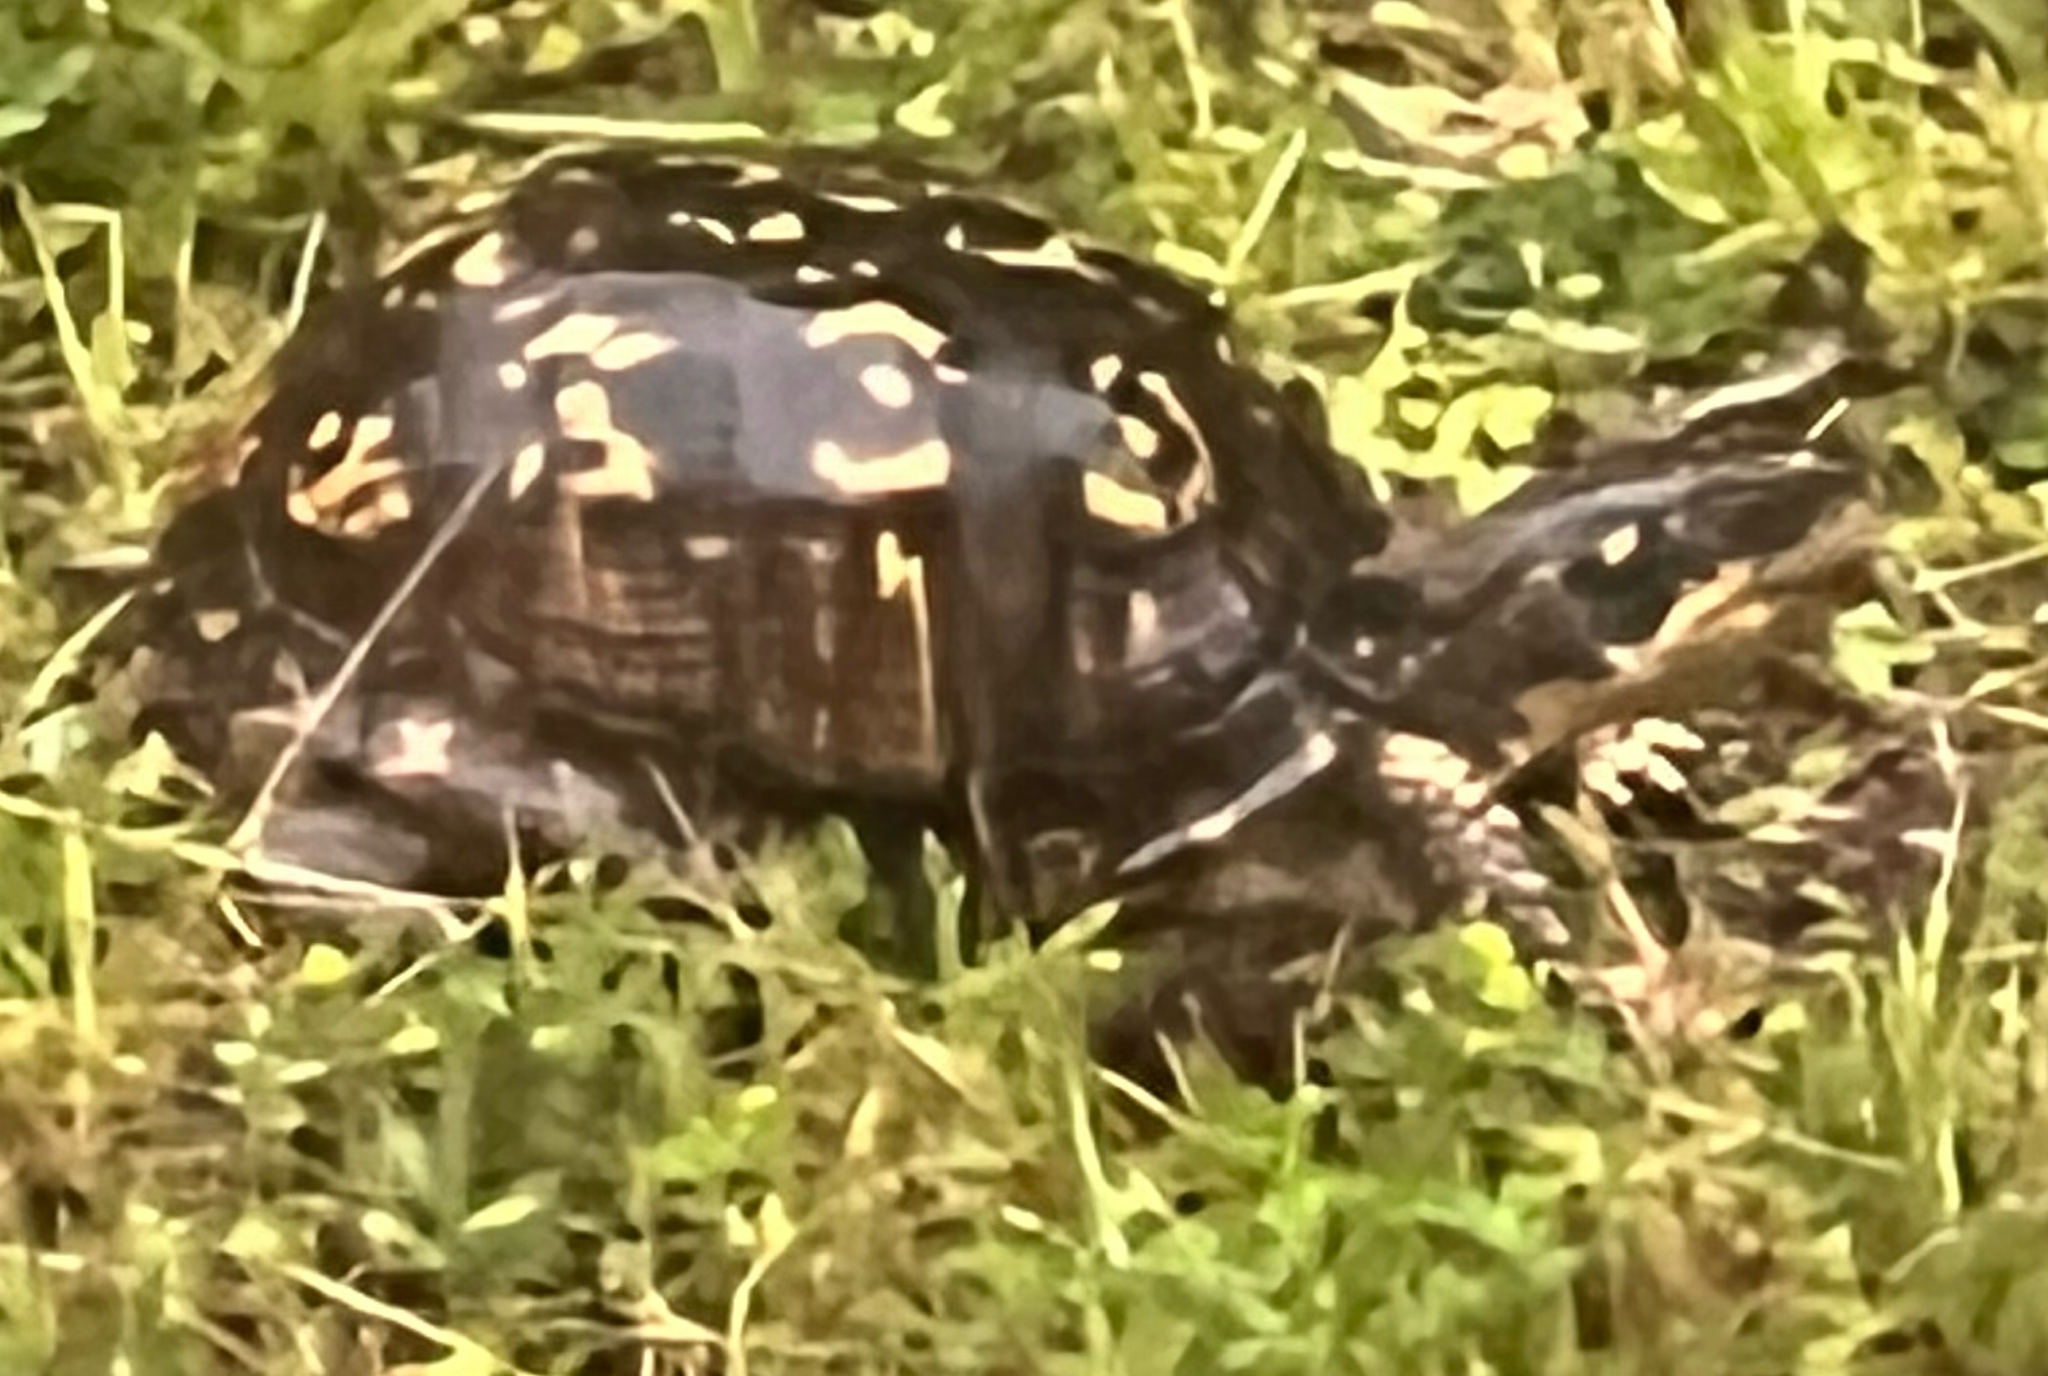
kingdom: Animalia
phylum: Chordata
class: Testudines
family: Emydidae
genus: Terrapene
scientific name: Terrapene carolina
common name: Common box turtle
